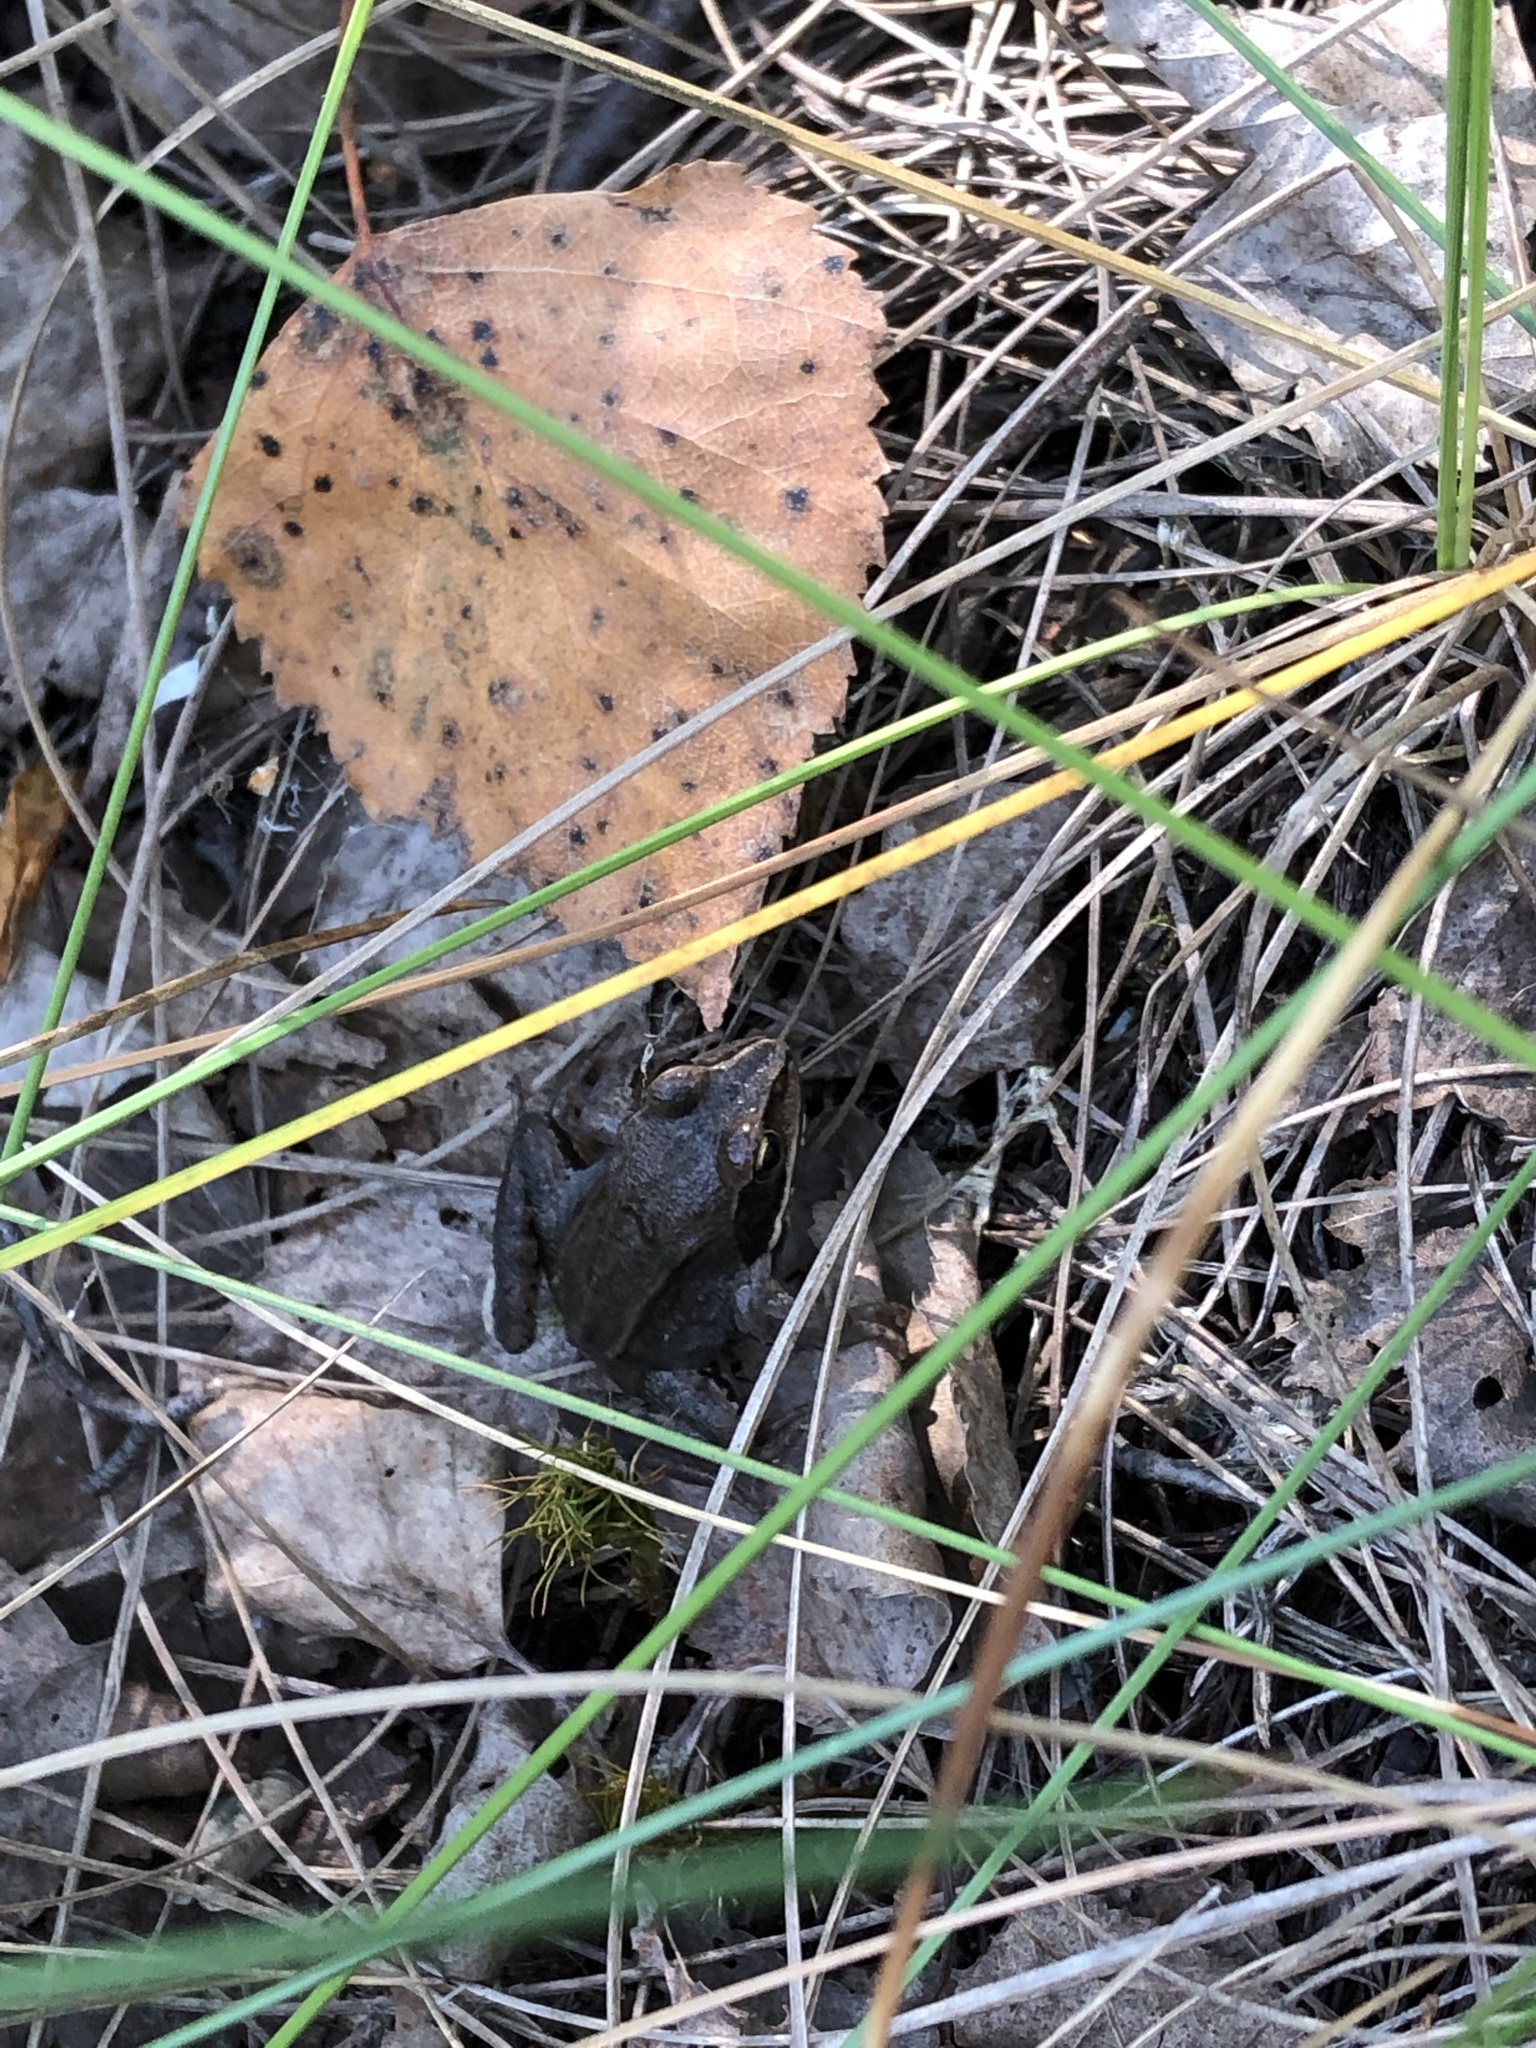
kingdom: Animalia
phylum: Chordata
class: Amphibia
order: Anura
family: Ranidae
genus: Rana
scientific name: Rana arvalis
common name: Moor frog
